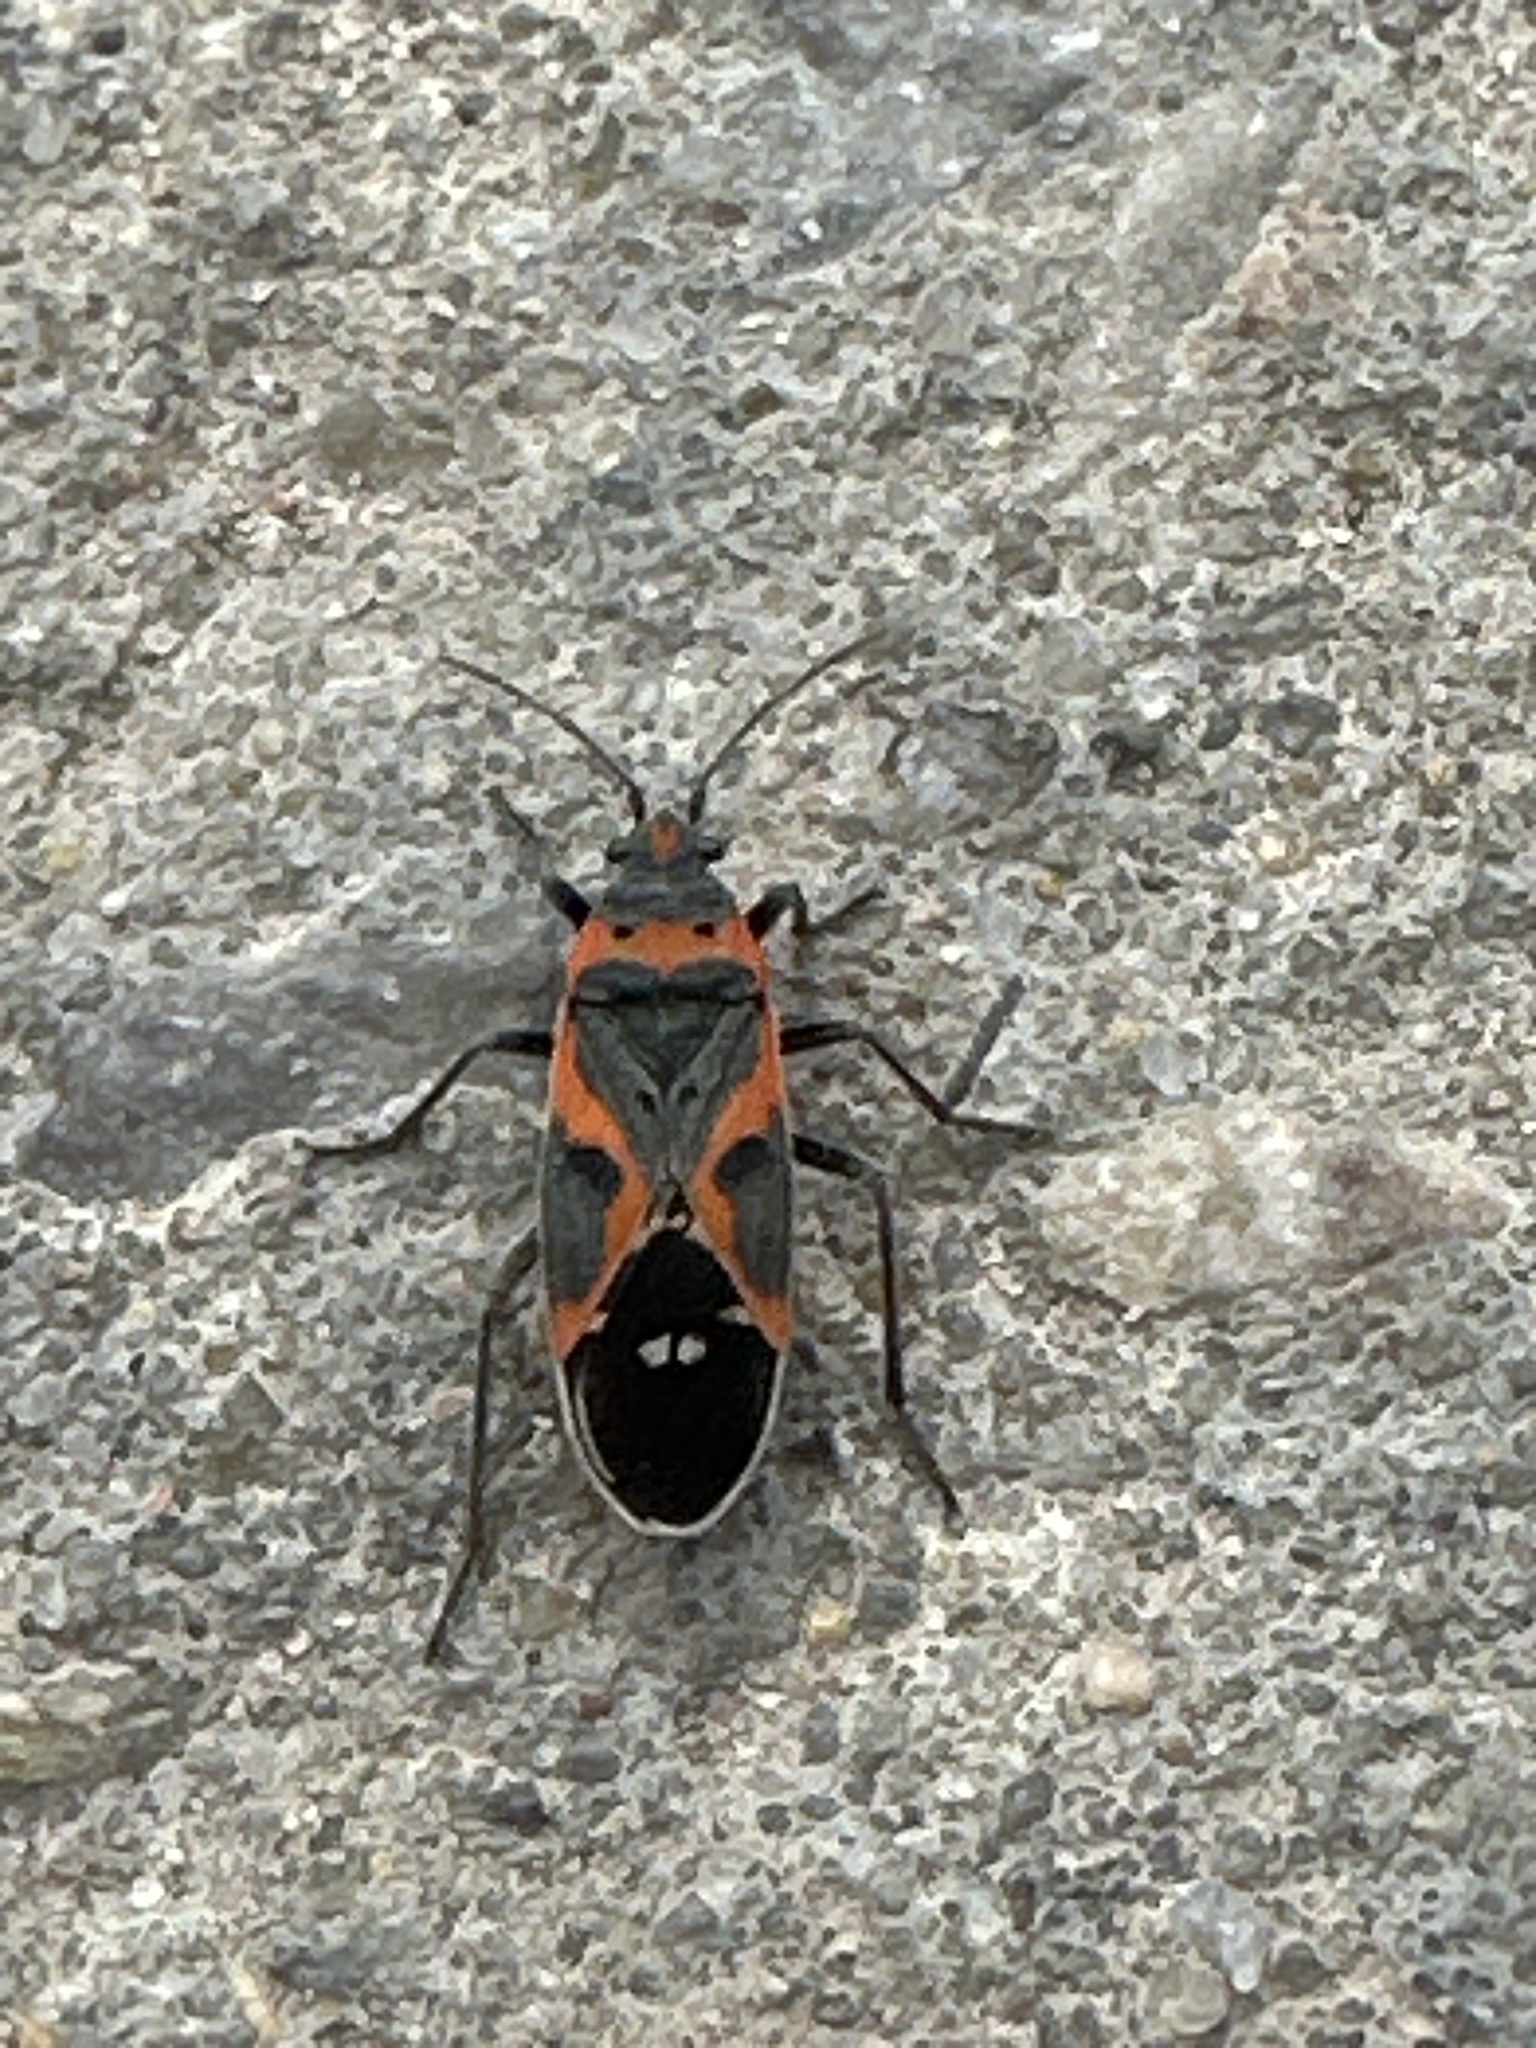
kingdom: Animalia
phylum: Arthropoda
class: Insecta
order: Hemiptera
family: Lygaeidae
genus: Lygaeus
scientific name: Lygaeus kalmii
